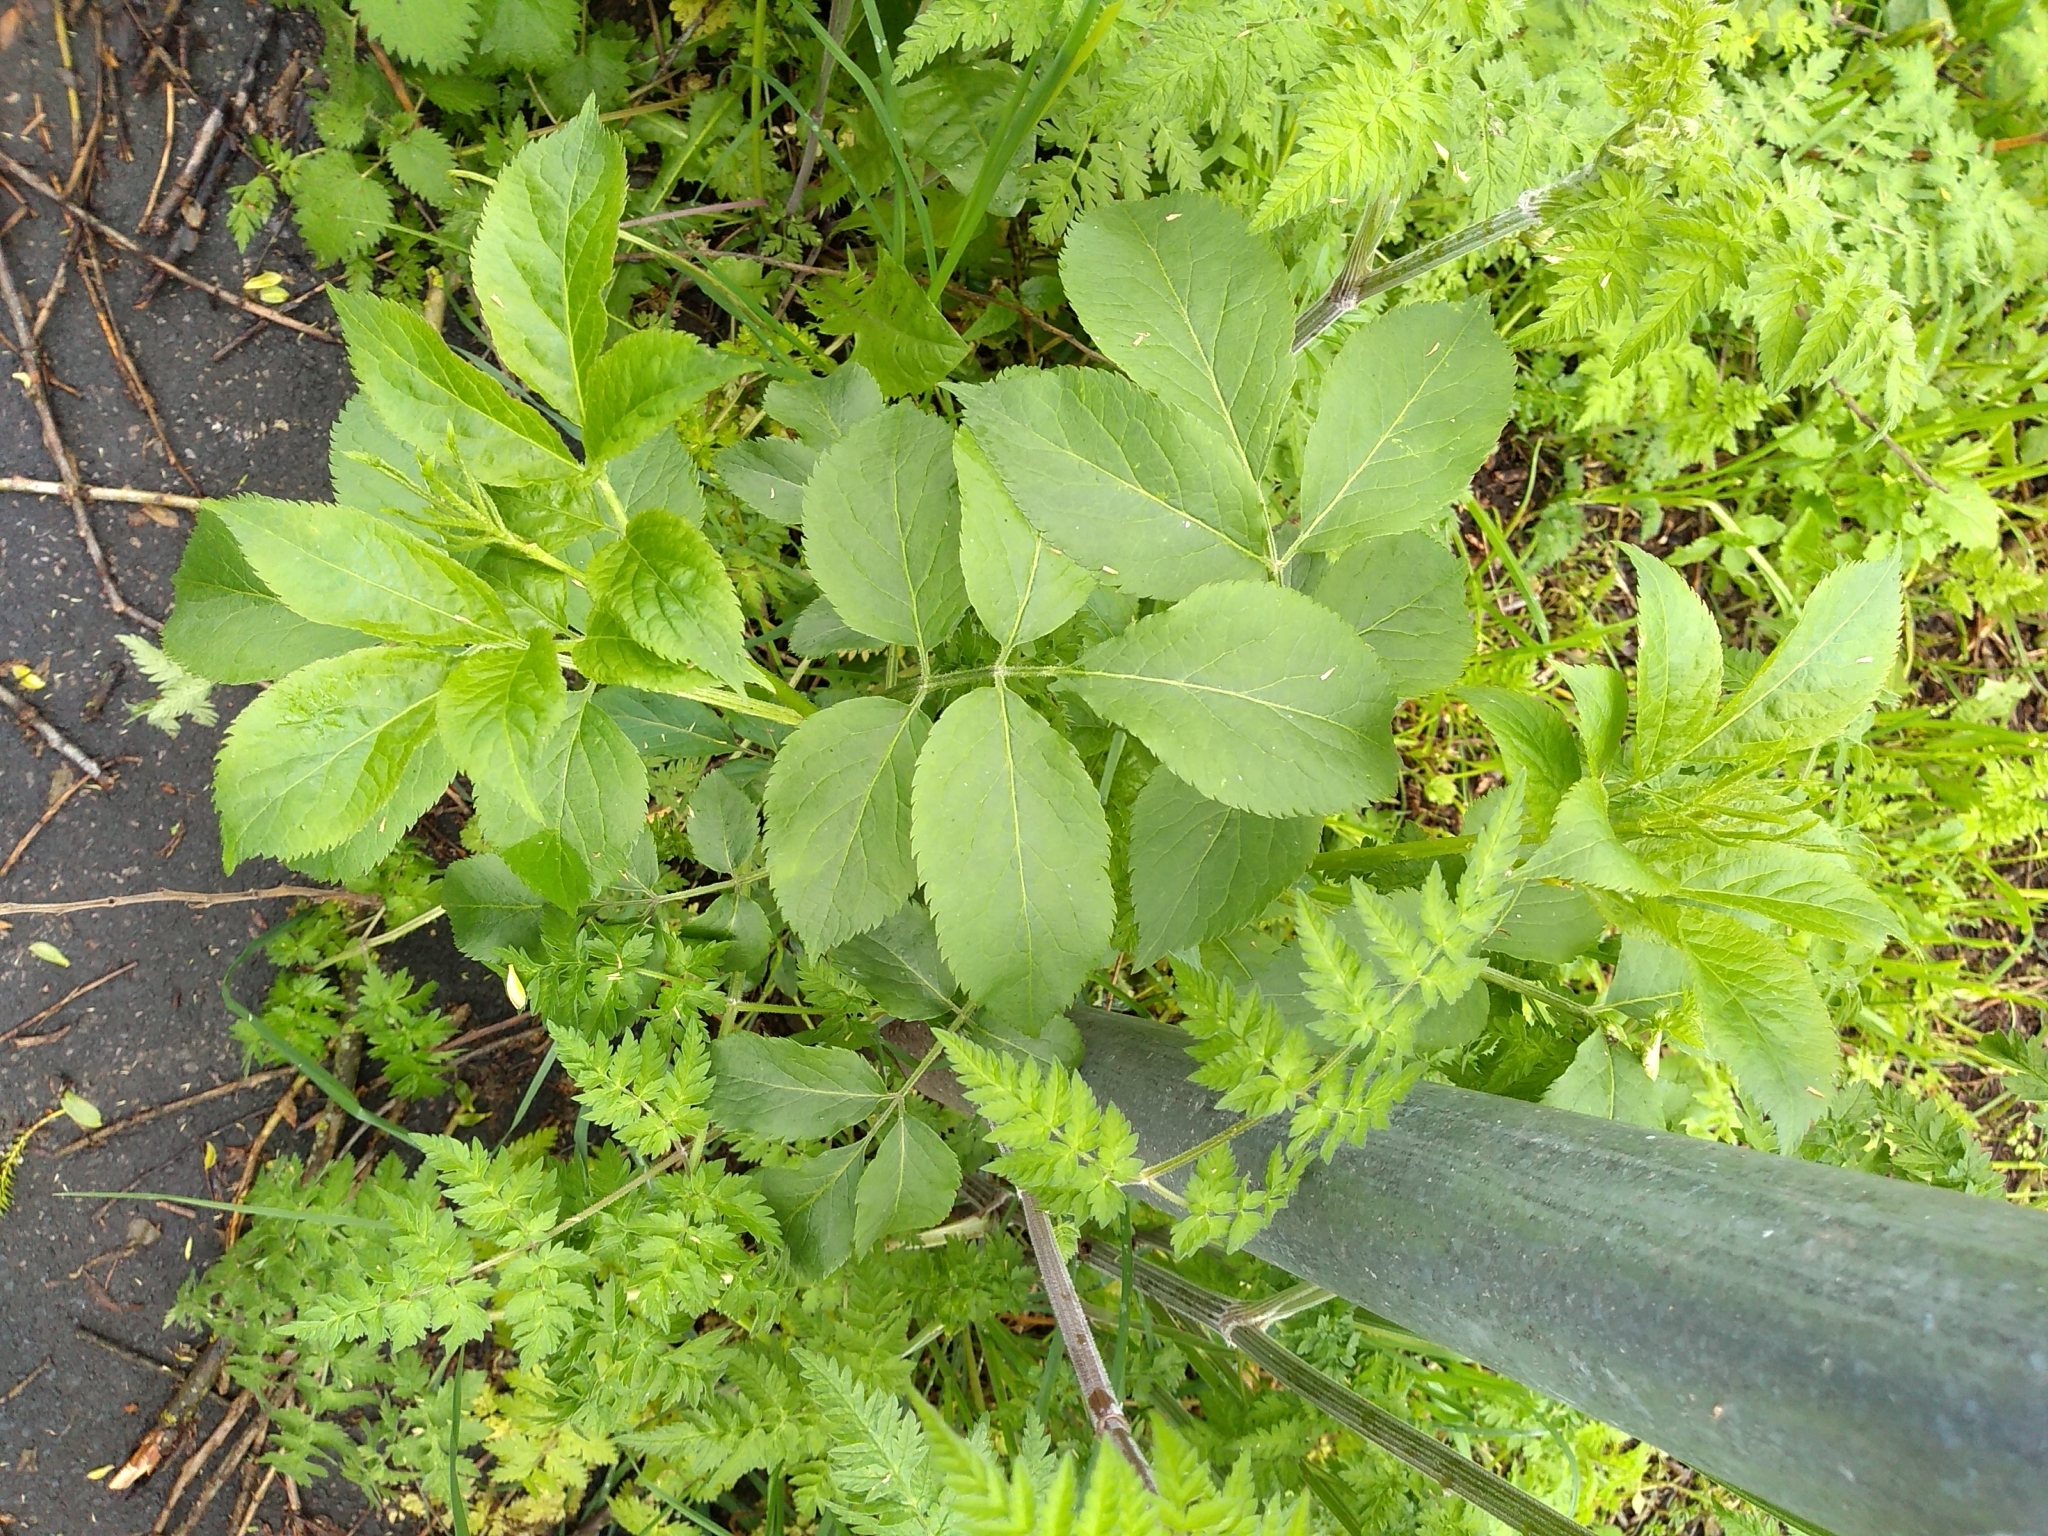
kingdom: Plantae
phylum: Tracheophyta
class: Magnoliopsida
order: Dipsacales
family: Viburnaceae
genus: Sambucus
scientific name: Sambucus nigra
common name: Elder
